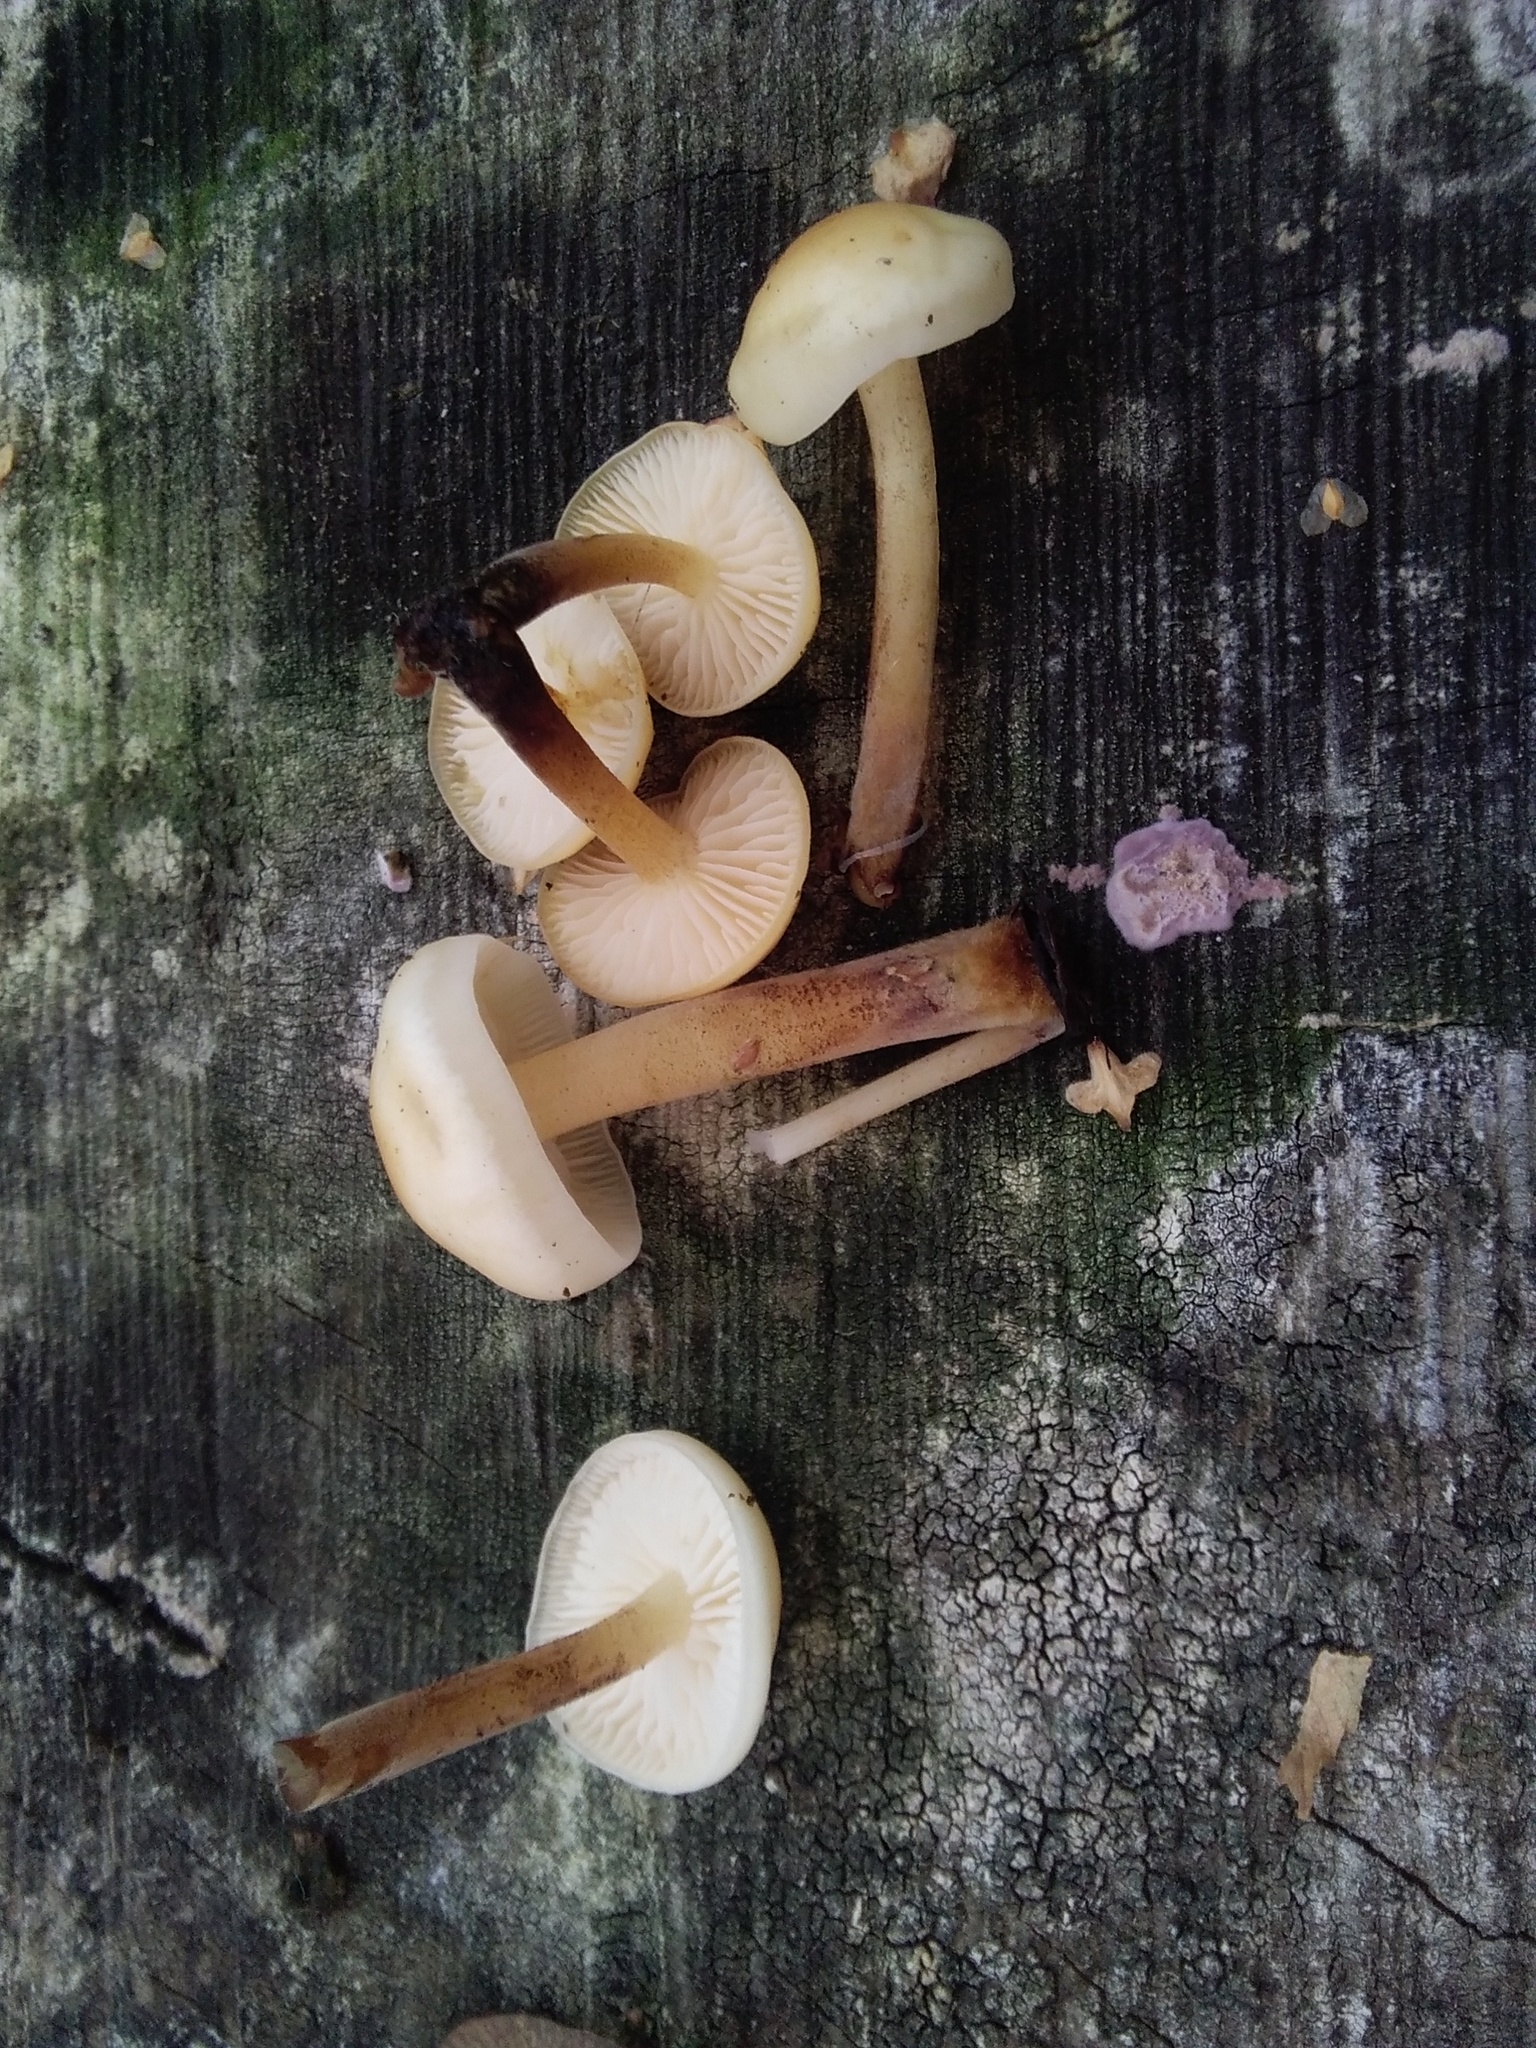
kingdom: Fungi
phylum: Basidiomycota
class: Agaricomycetes
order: Agaricales
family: Physalacriaceae
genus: Flammulina
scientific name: Flammulina
